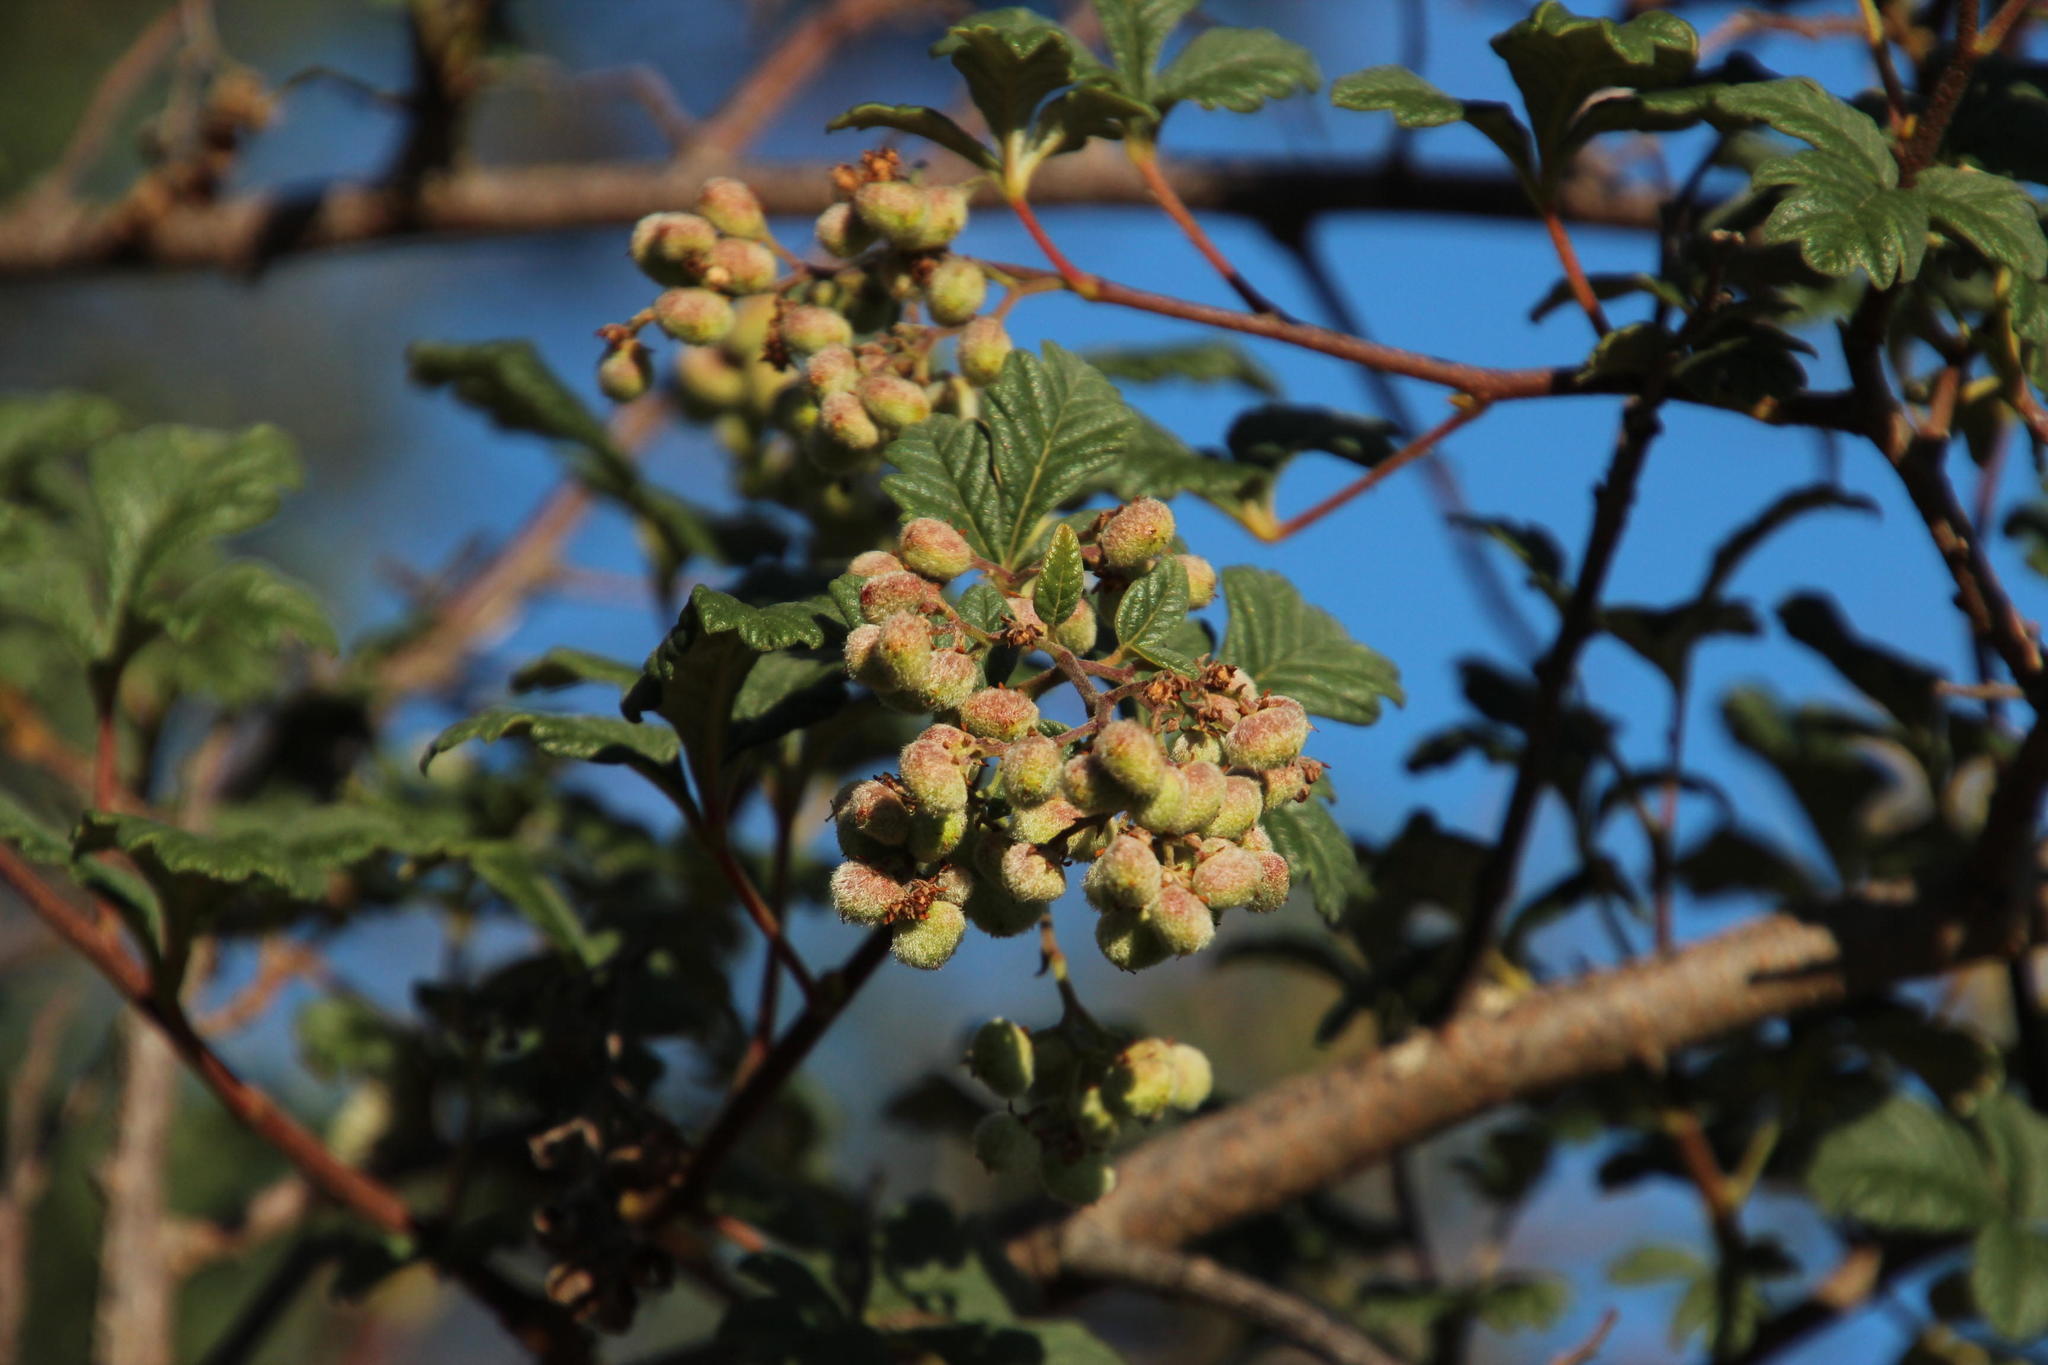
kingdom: Plantae
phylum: Tracheophyta
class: Magnoliopsida
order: Sapindales
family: Anacardiaceae
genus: Searsia
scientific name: Searsia incisa
